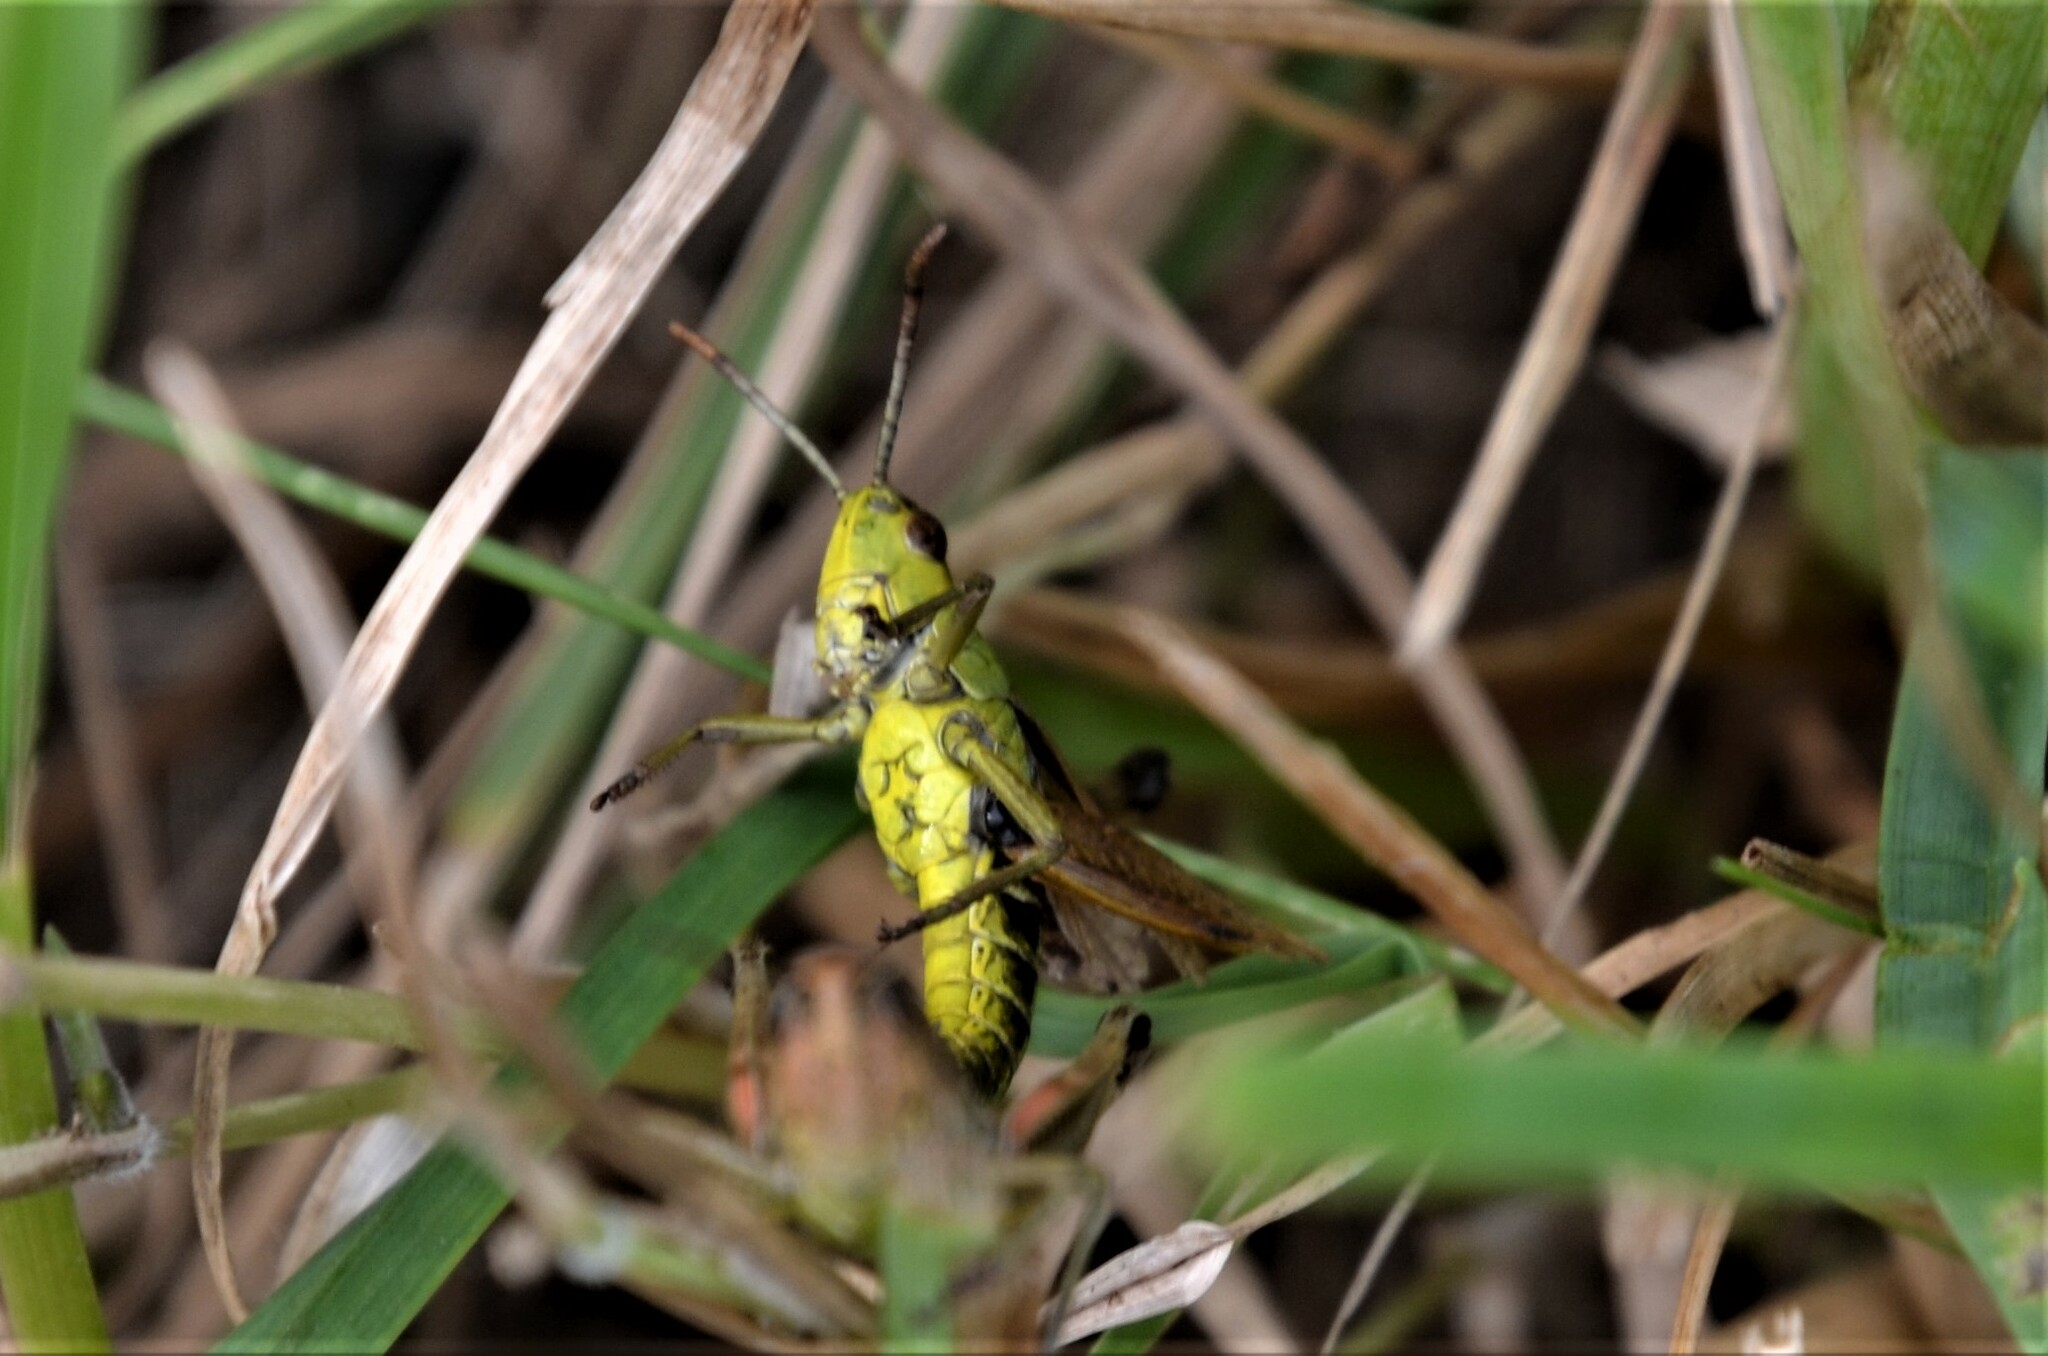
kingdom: Animalia
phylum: Arthropoda
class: Insecta
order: Orthoptera
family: Acrididae
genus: Pseudochorthippus
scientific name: Pseudochorthippus parallelus
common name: Meadow grasshopper
